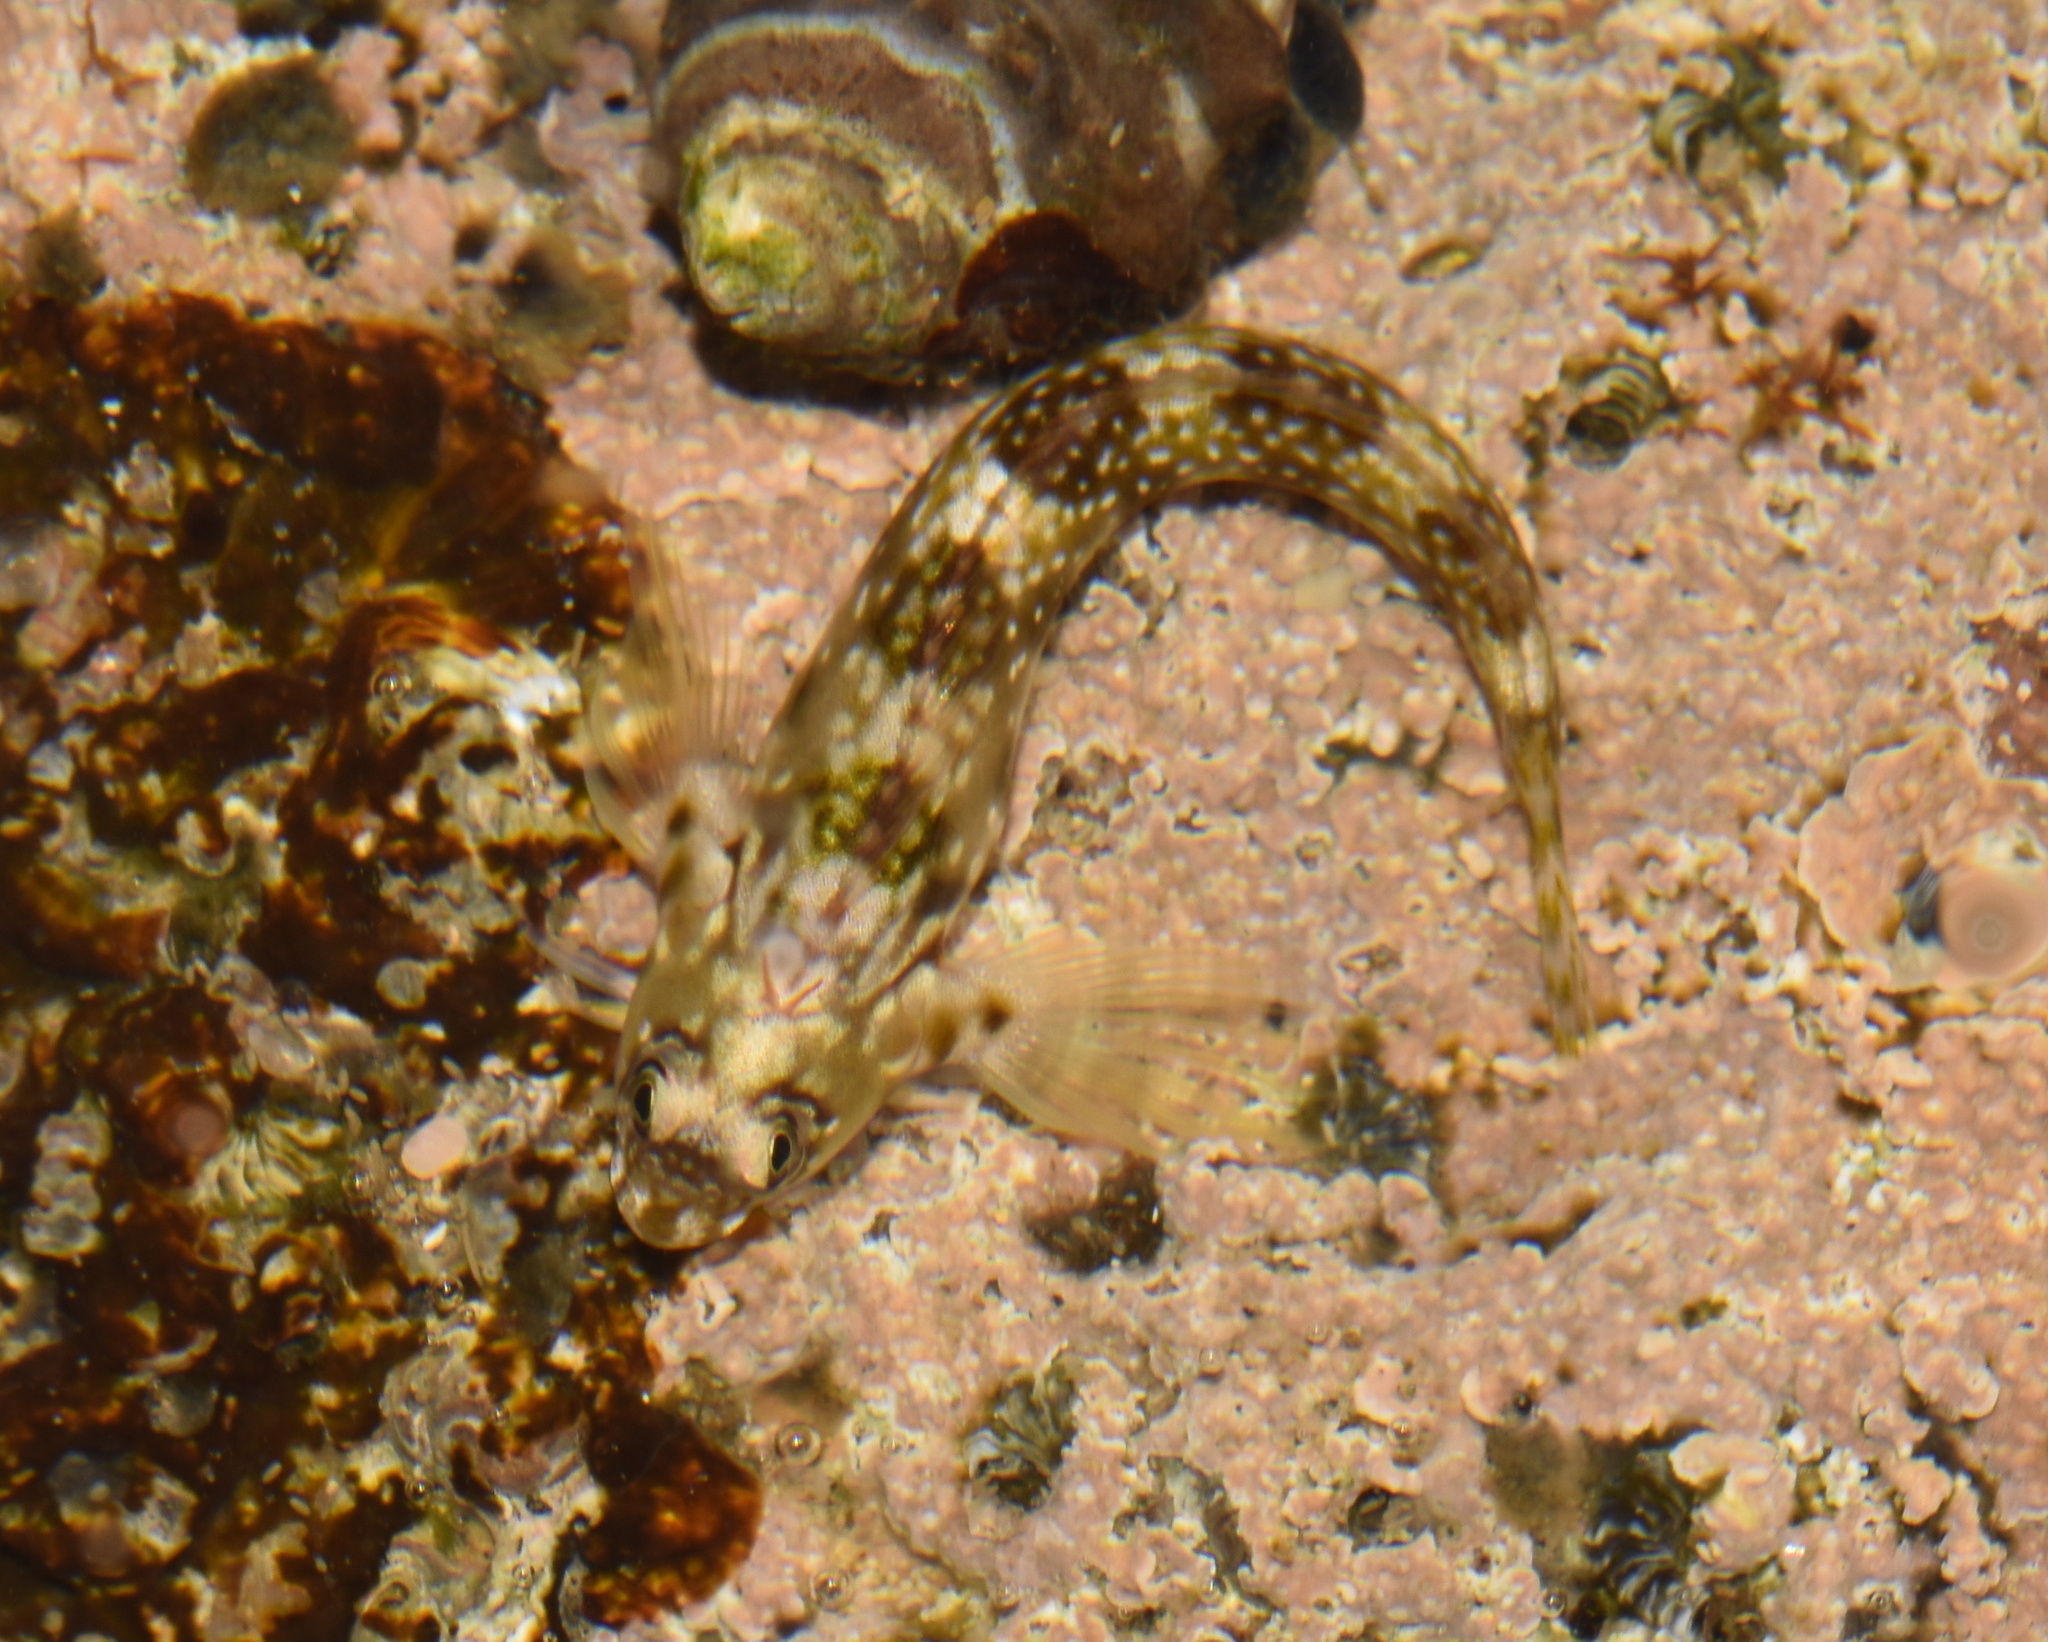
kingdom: Animalia
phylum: Chordata
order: Perciformes
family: Blenniidae
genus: Antennablennius
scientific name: Antennablennius bifilum
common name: Horned rockskipper
